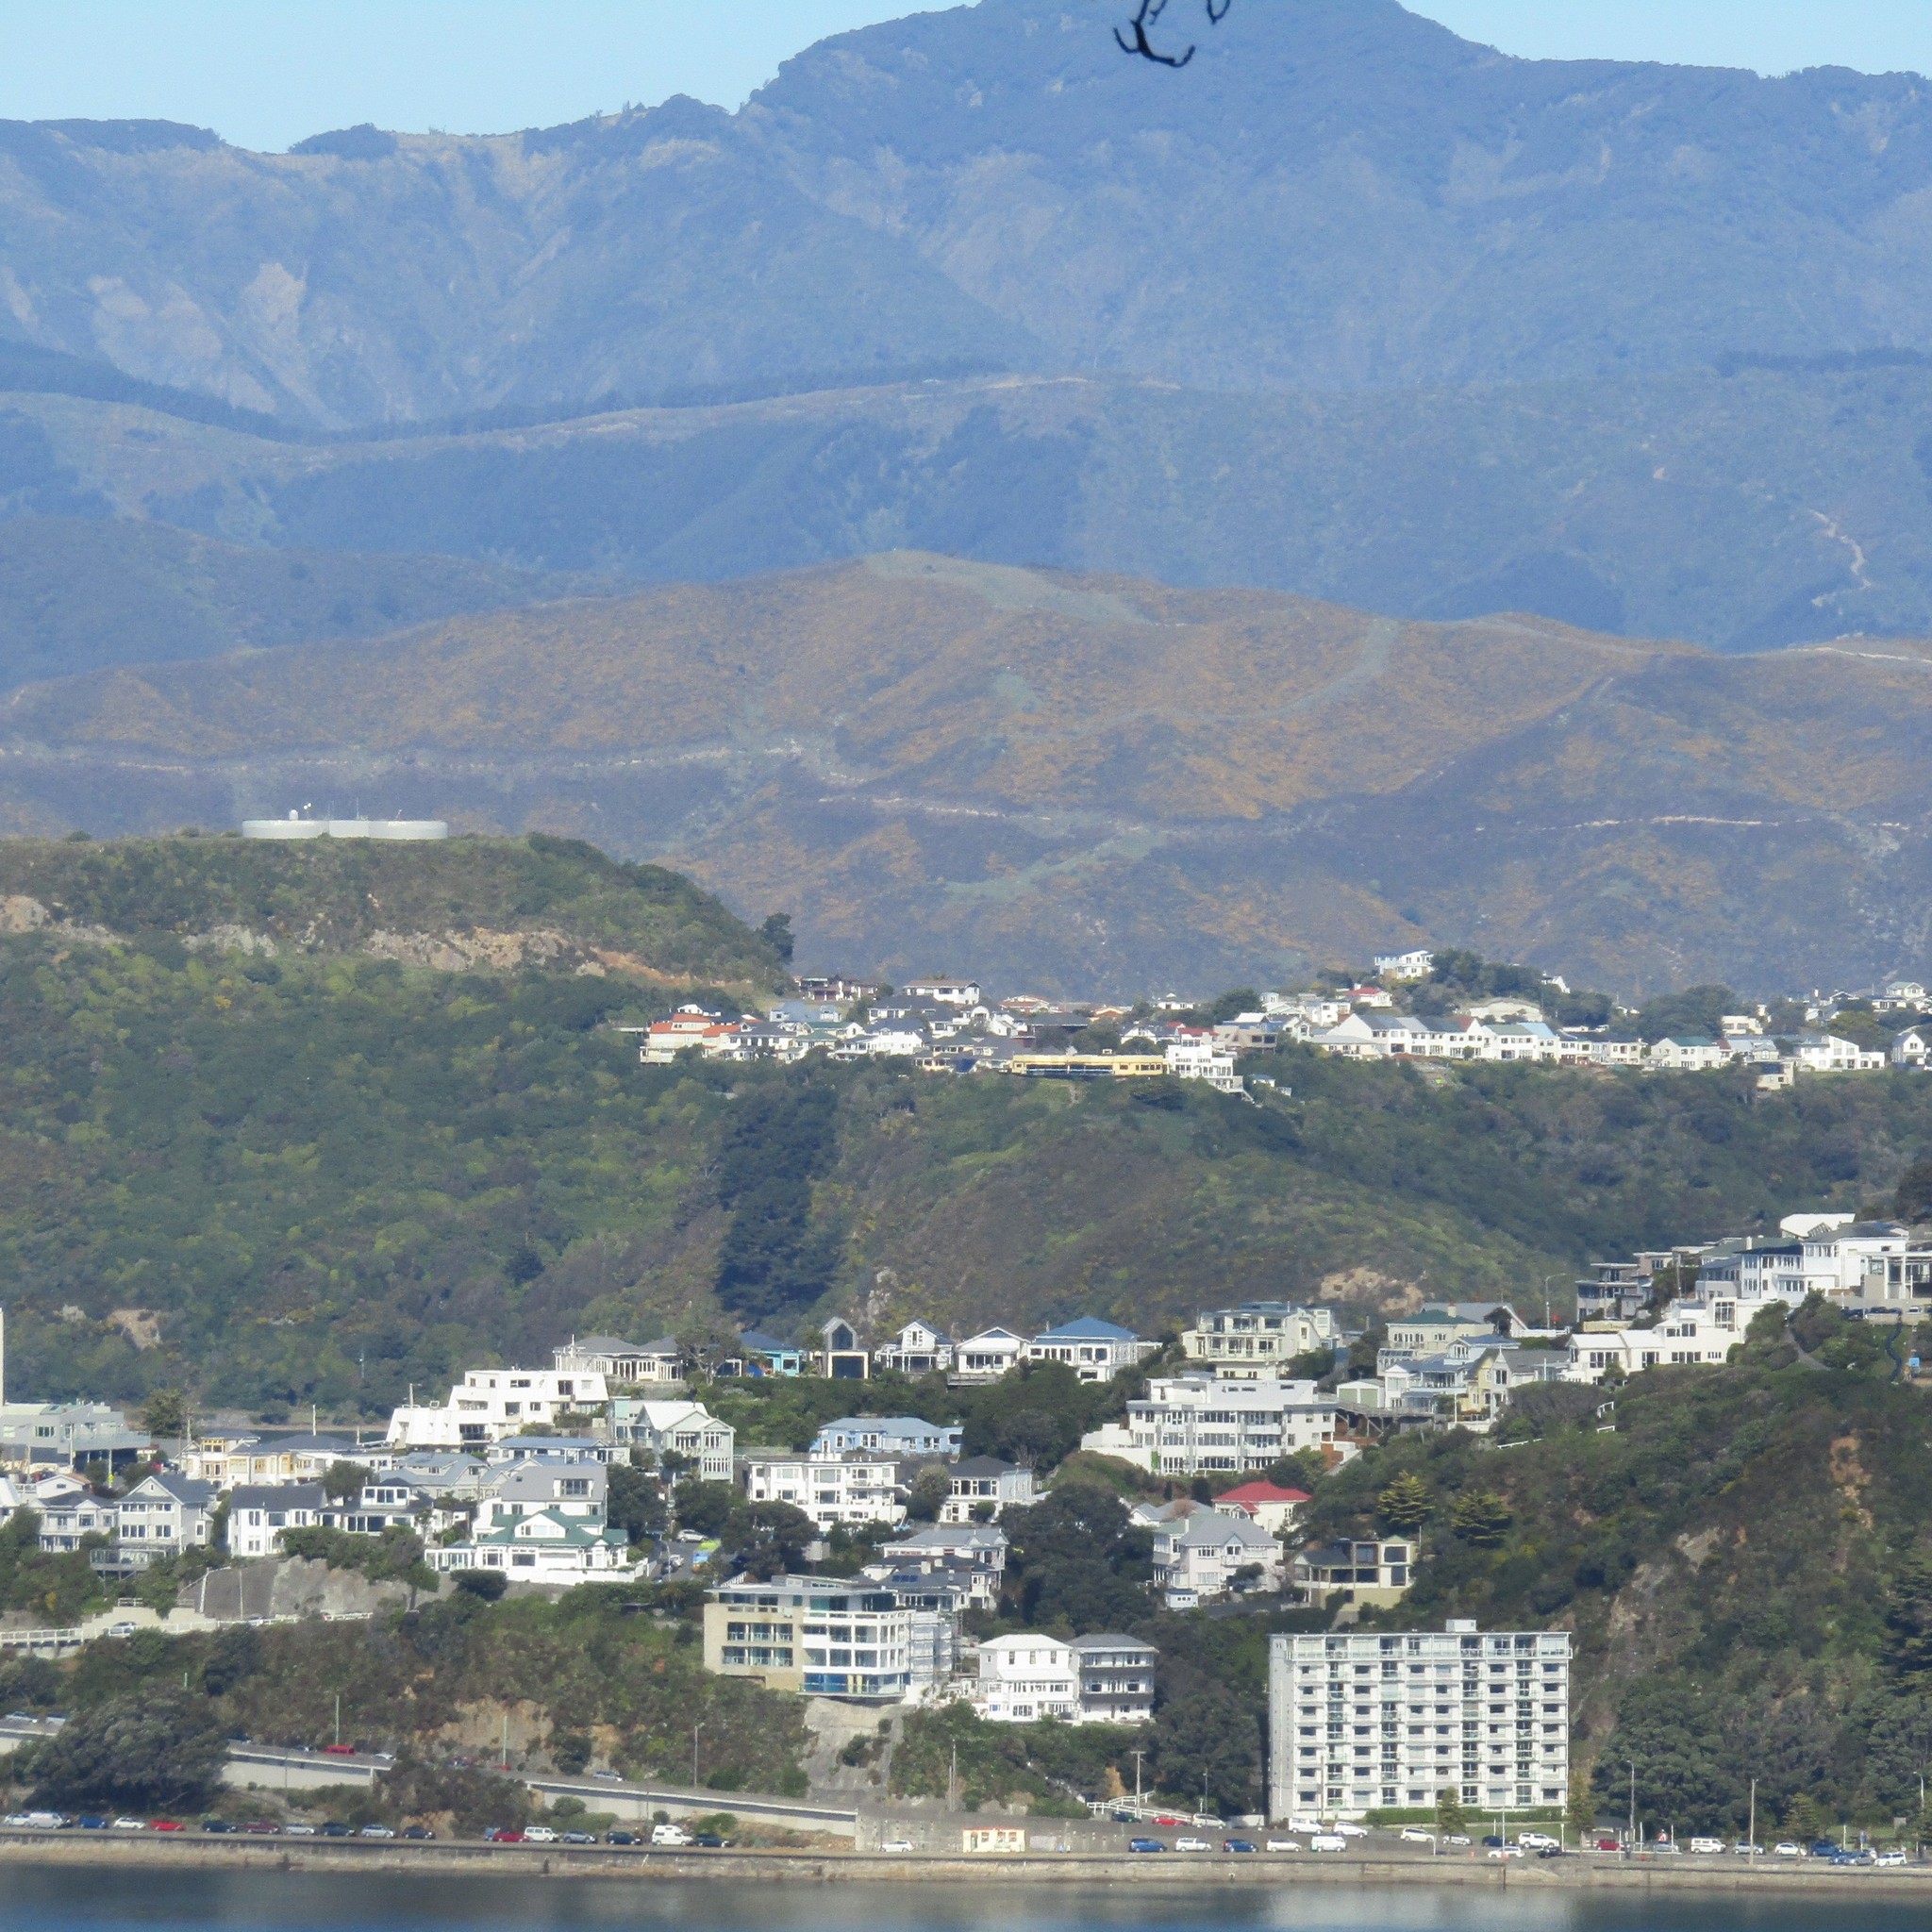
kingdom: Plantae
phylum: Tracheophyta
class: Magnoliopsida
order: Fabales
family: Fabaceae
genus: Ulex
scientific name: Ulex europaeus
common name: Common gorse
